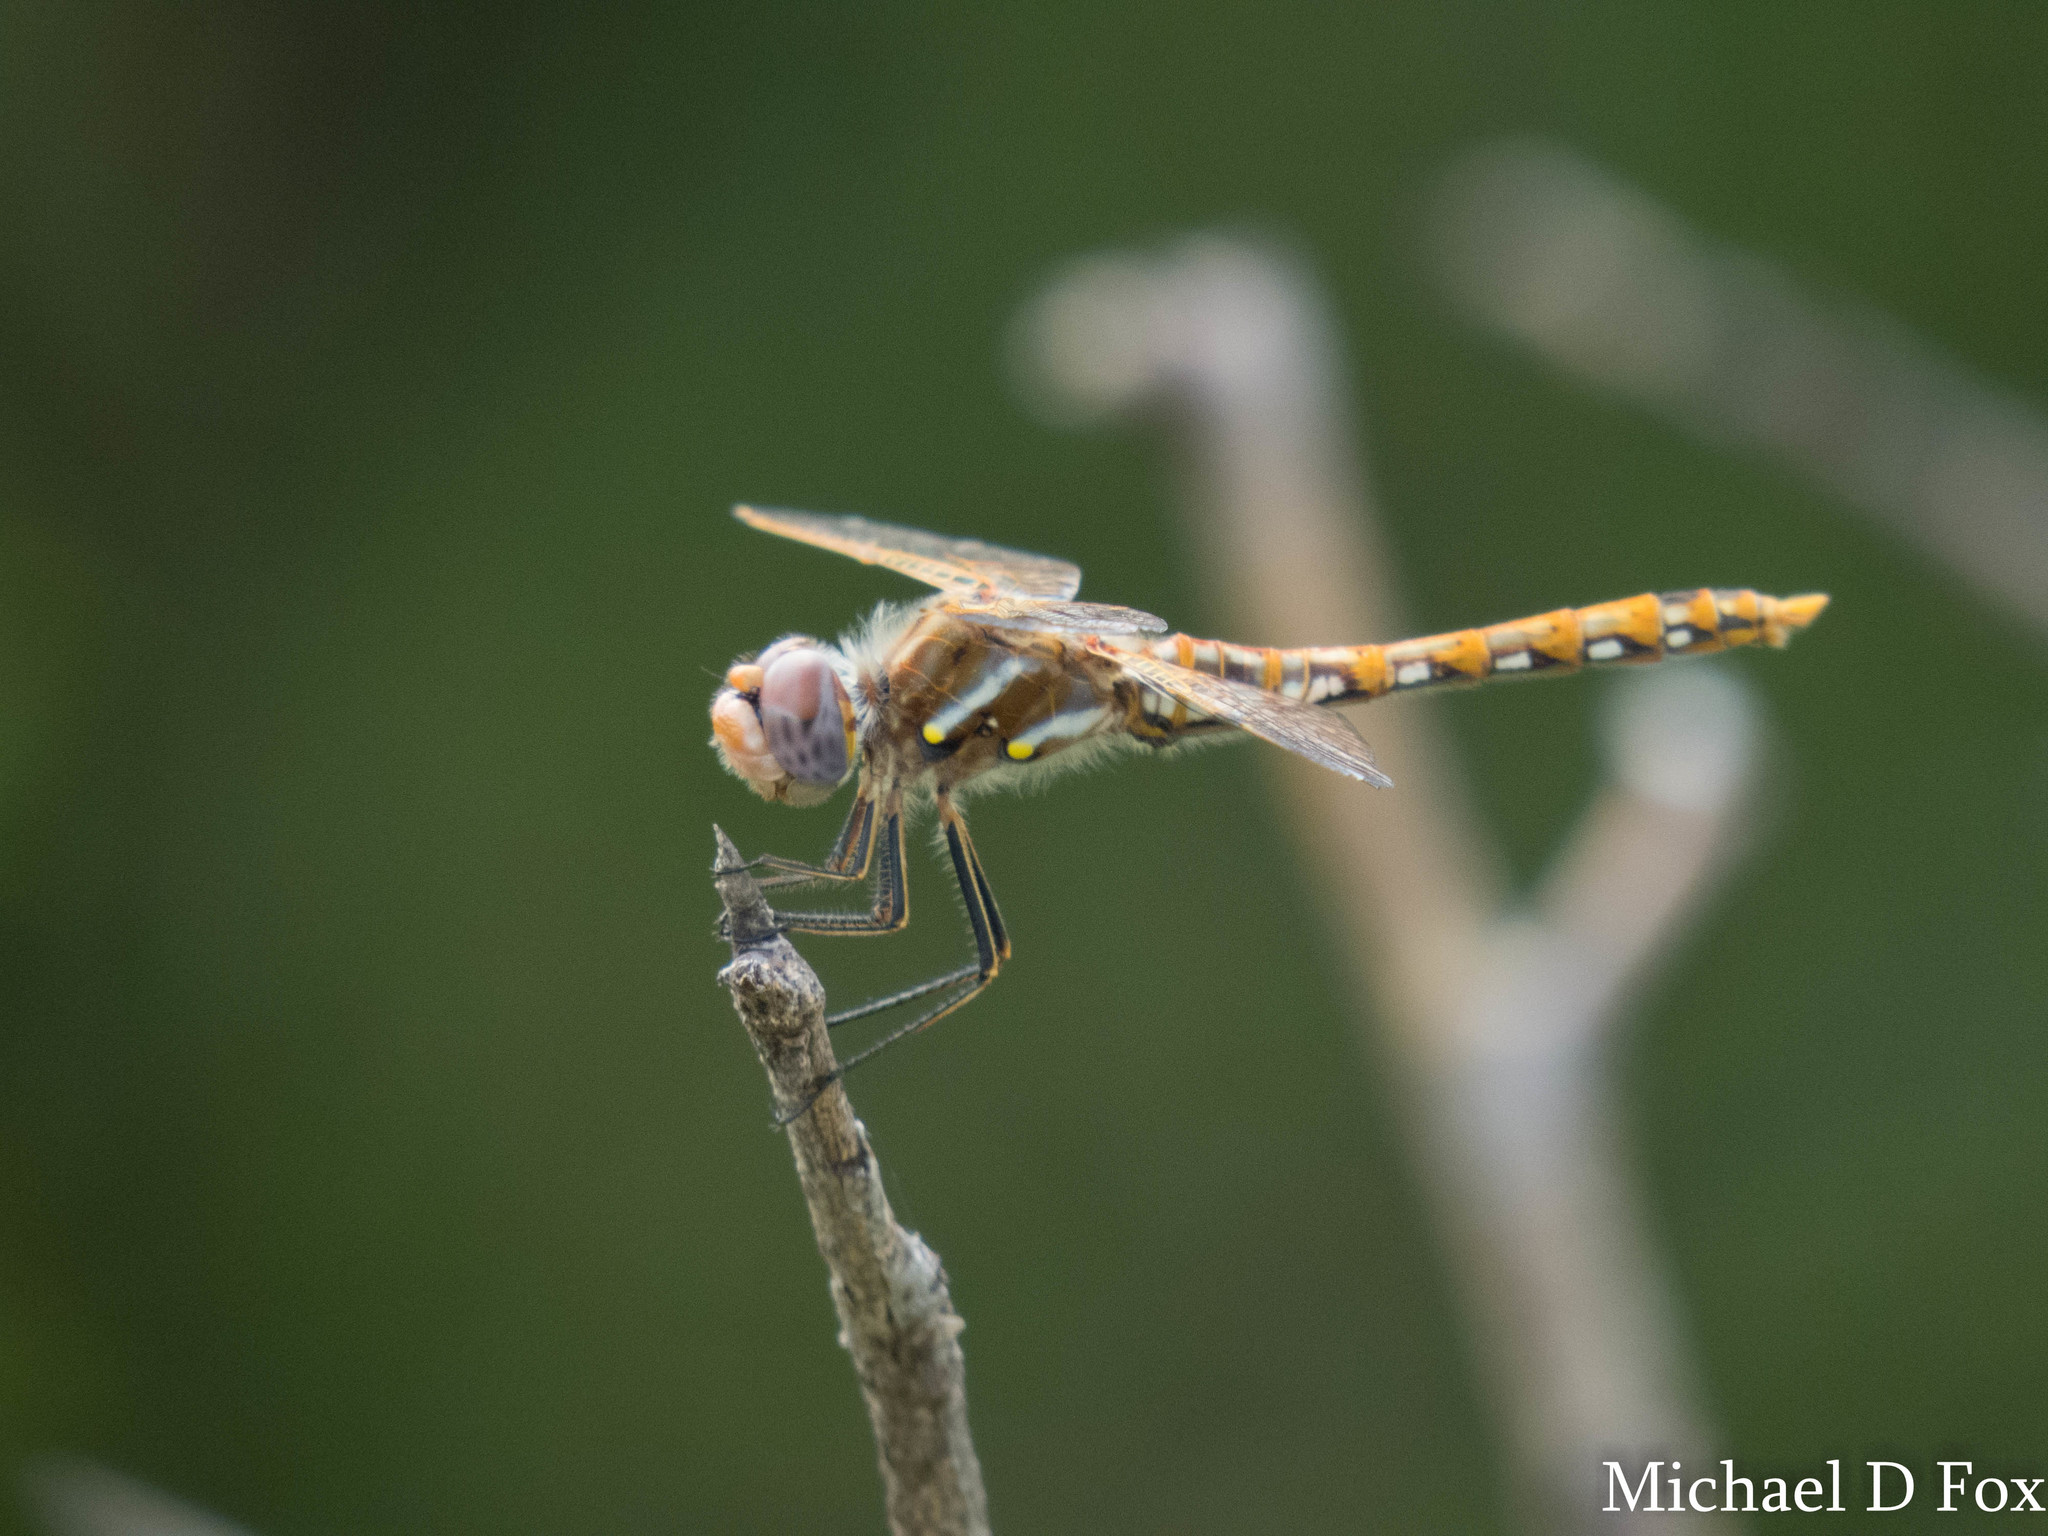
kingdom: Animalia
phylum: Arthropoda
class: Insecta
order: Odonata
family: Libellulidae
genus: Sympetrum
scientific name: Sympetrum corruptum
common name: Variegated meadowhawk
